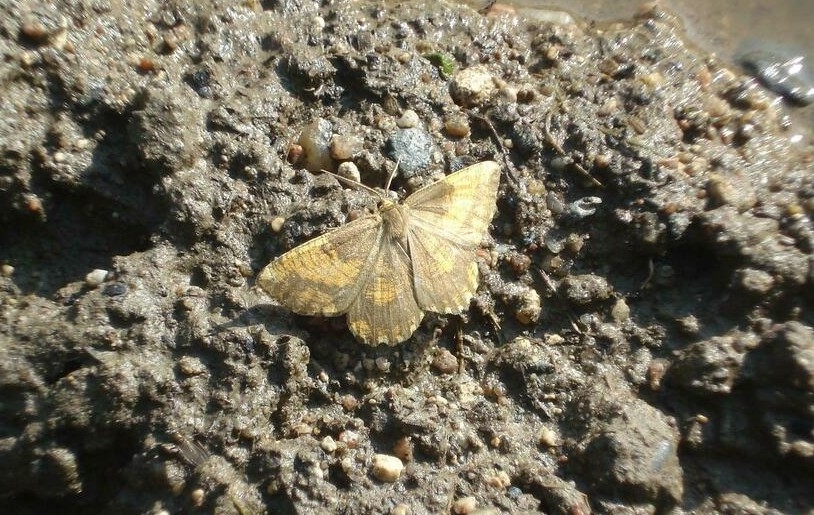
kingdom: Animalia
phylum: Arthropoda
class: Insecta
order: Lepidoptera
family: Geometridae
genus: Angerona
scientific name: Angerona prunaria
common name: Orange moth
